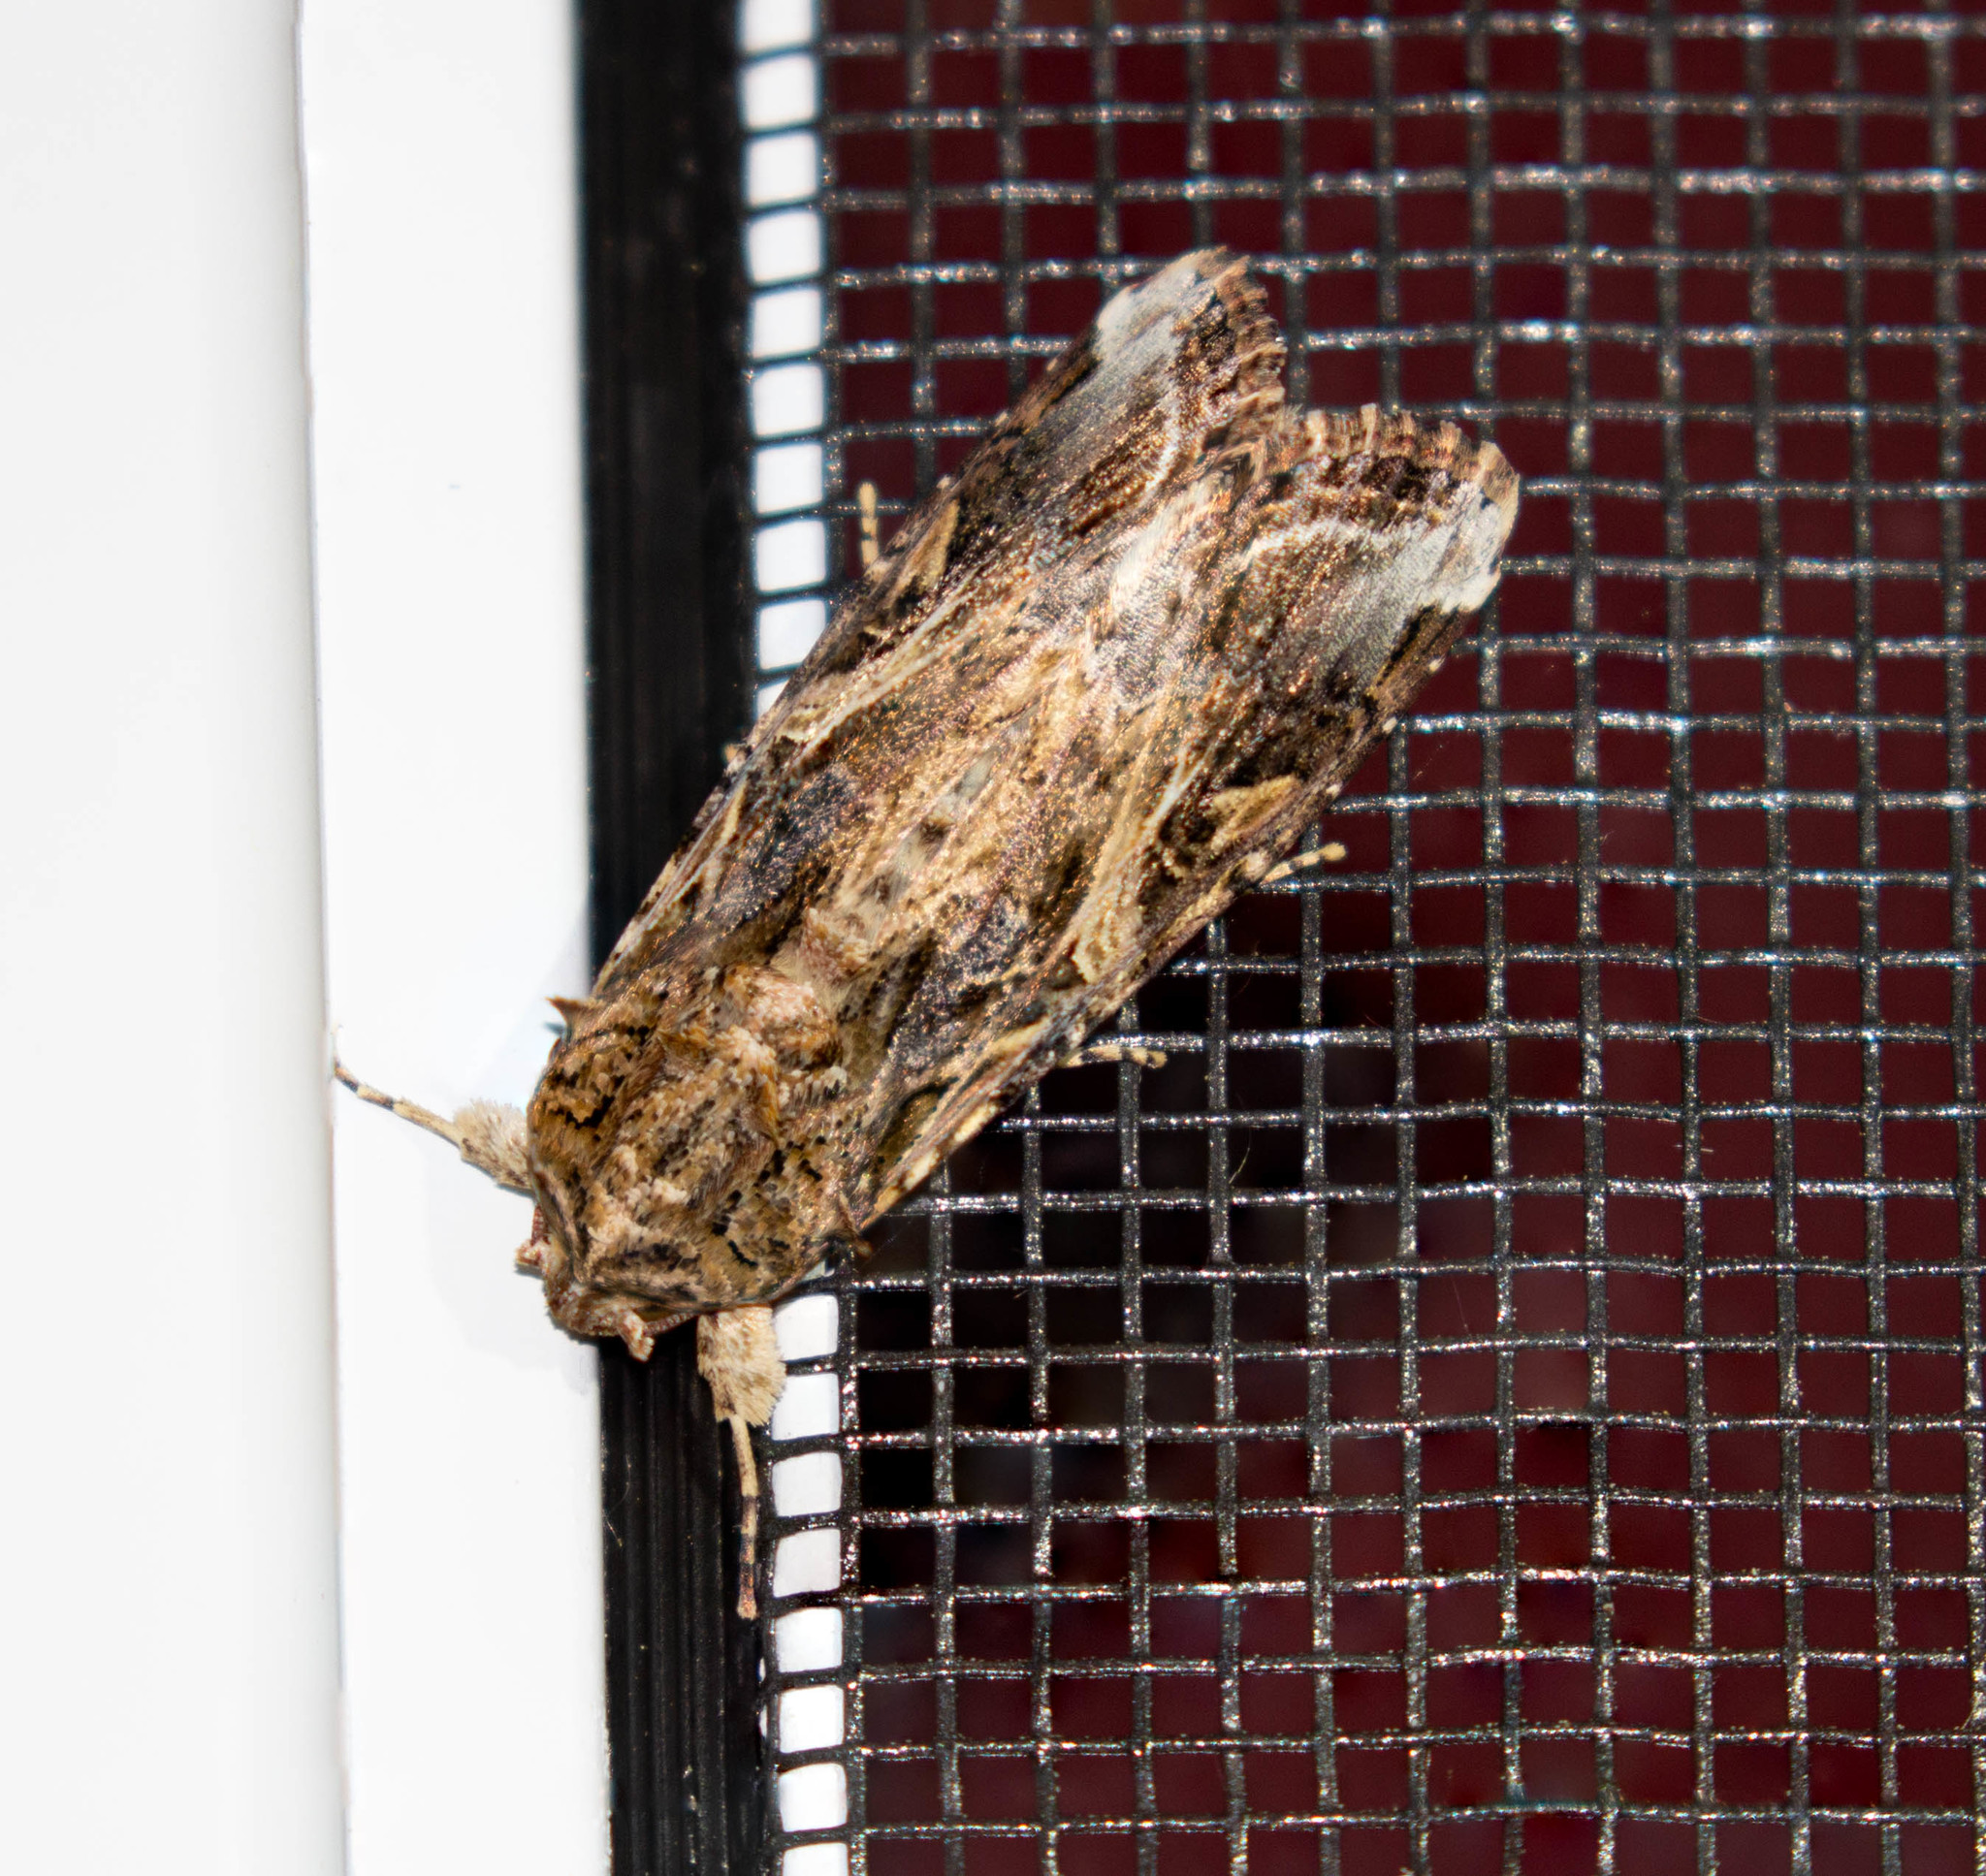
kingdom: Animalia
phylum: Arthropoda
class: Insecta
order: Lepidoptera
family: Noctuidae
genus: Spodoptera
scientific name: Spodoptera ornithogalli
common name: Yellow-striped armyworm
